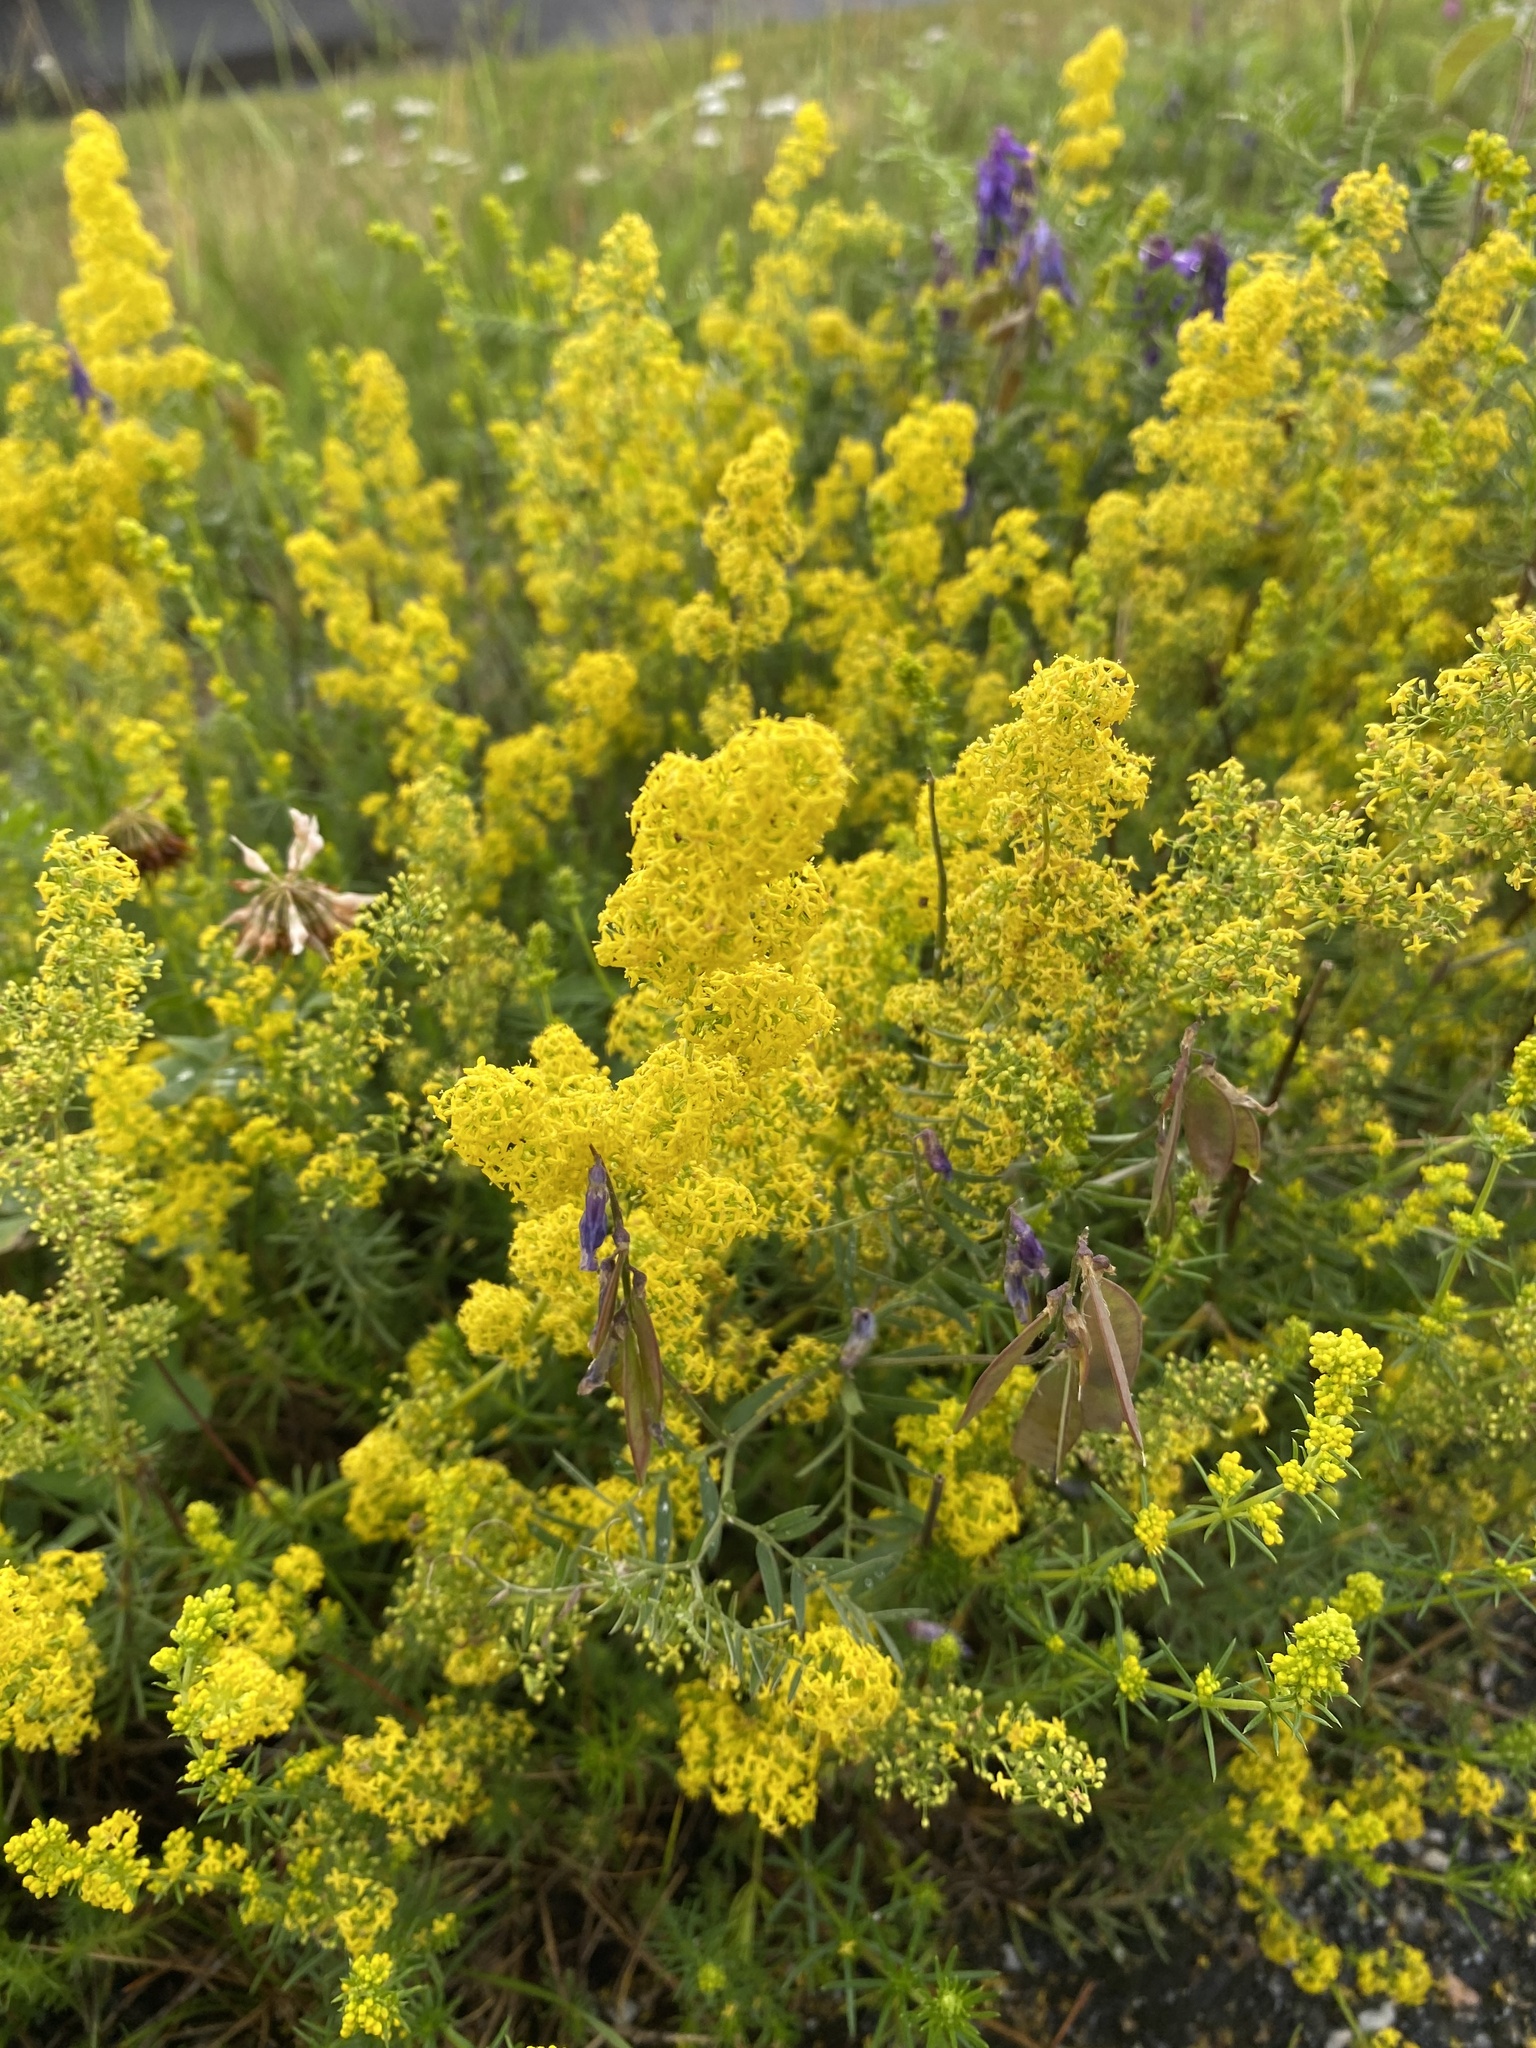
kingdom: Plantae
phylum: Tracheophyta
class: Magnoliopsida
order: Gentianales
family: Rubiaceae
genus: Galium
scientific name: Galium verum
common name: Lady's bedstraw
